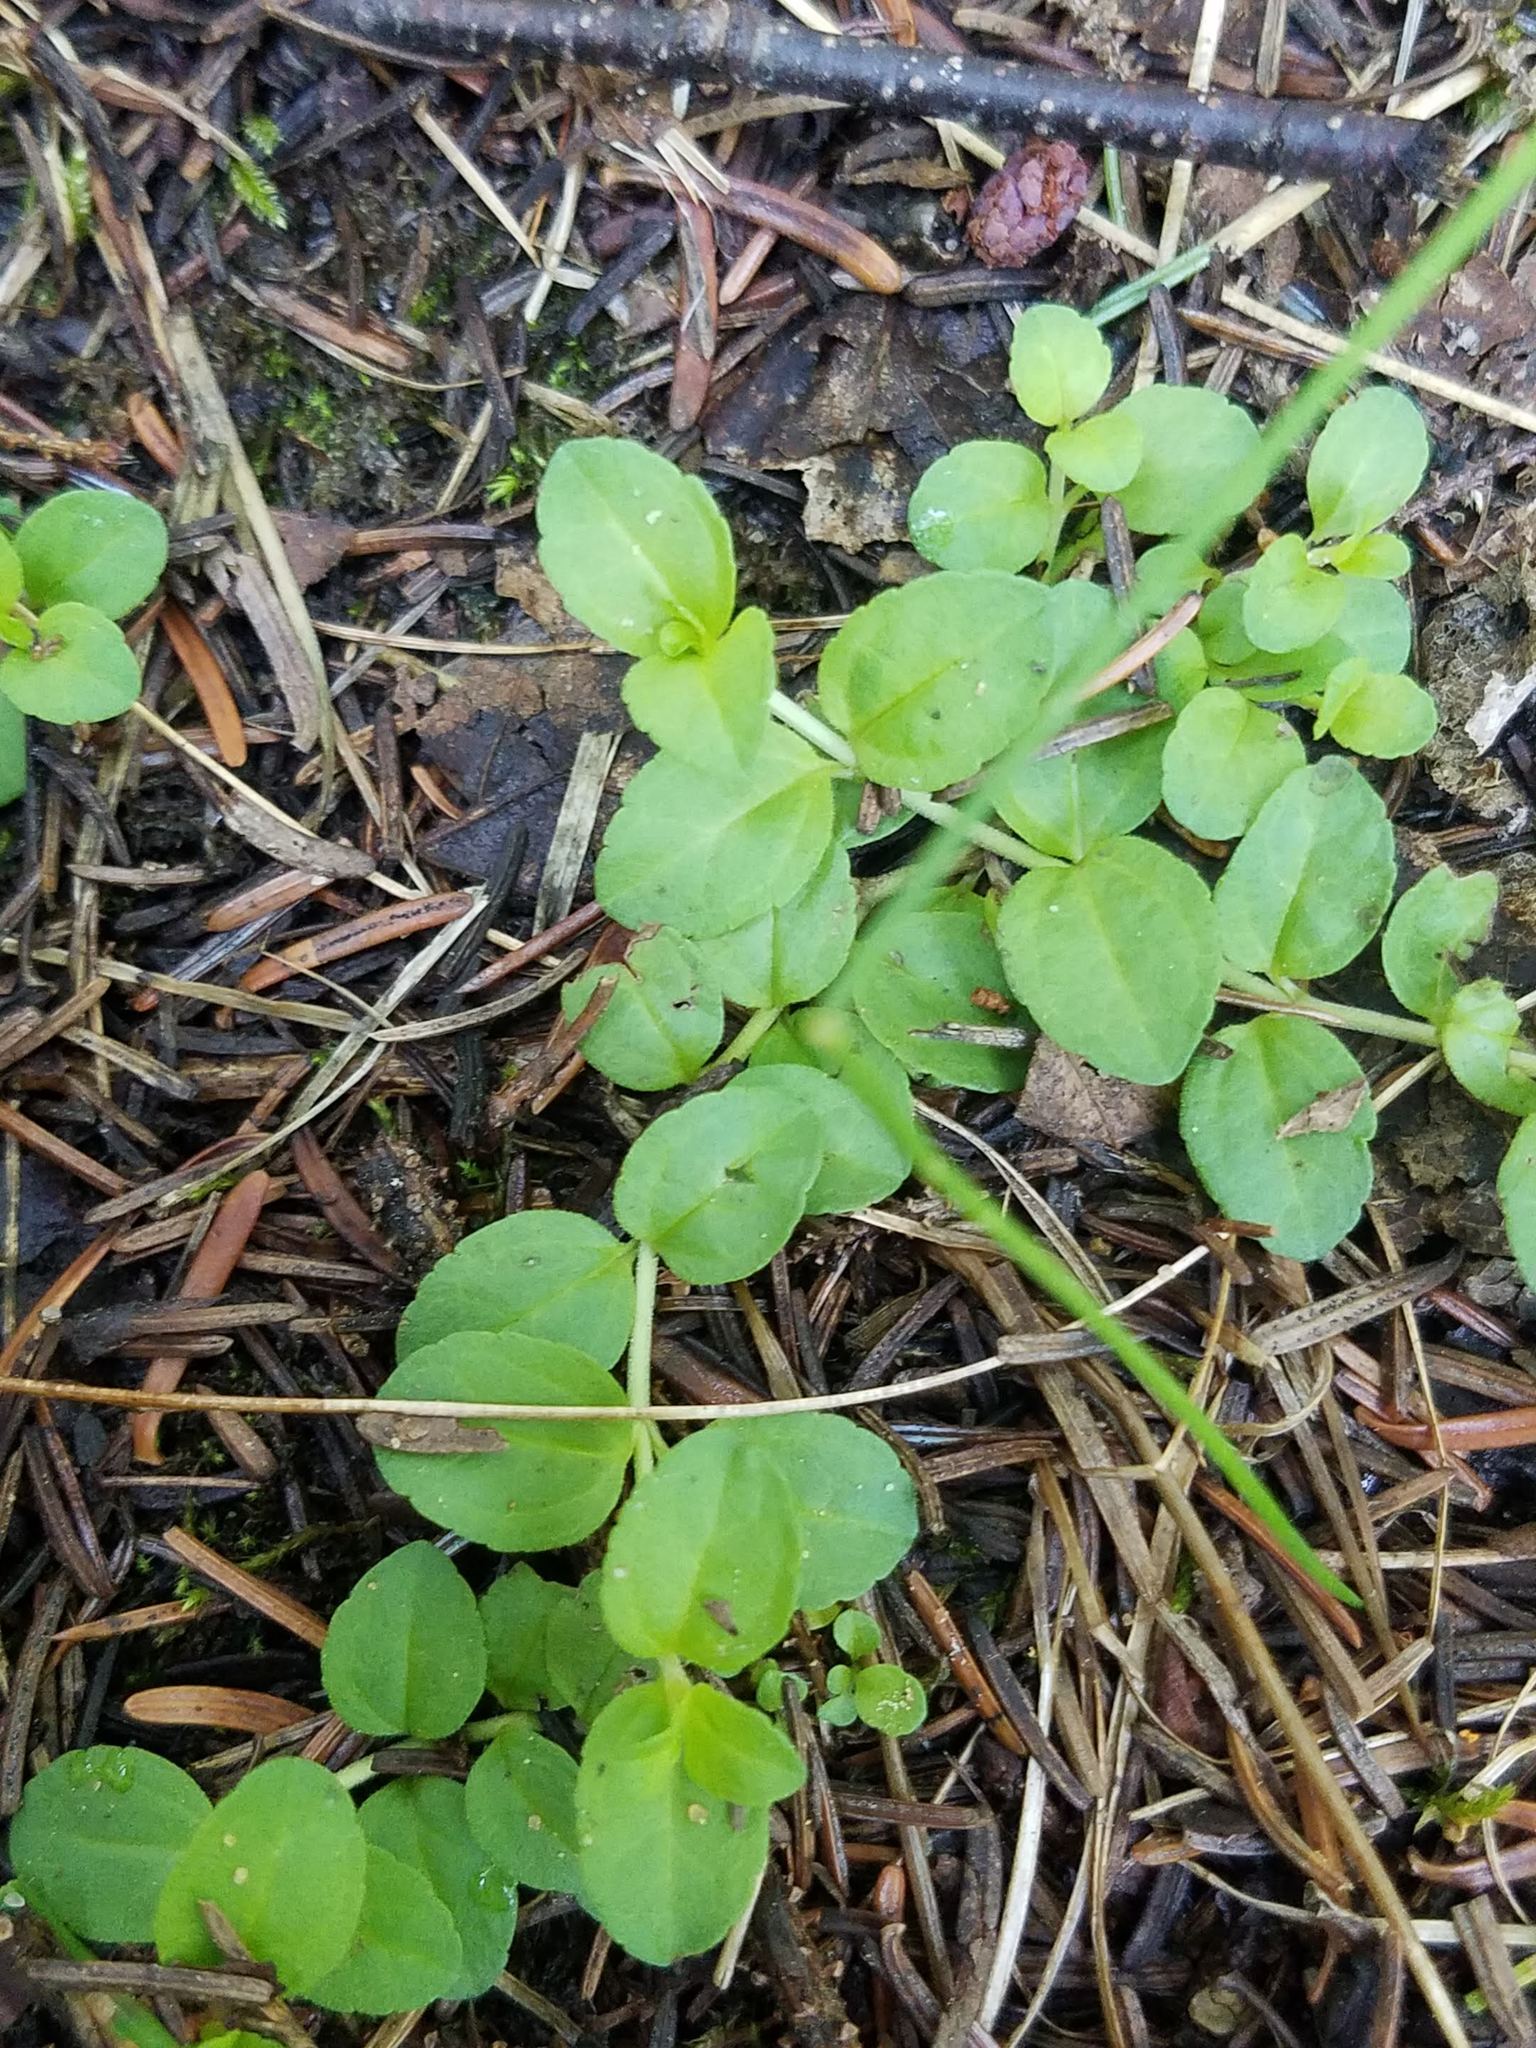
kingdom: Plantae
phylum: Tracheophyta
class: Magnoliopsida
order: Lamiales
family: Plantaginaceae
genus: Veronica
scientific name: Veronica serpyllifolia
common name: Thyme-leaved speedwell
